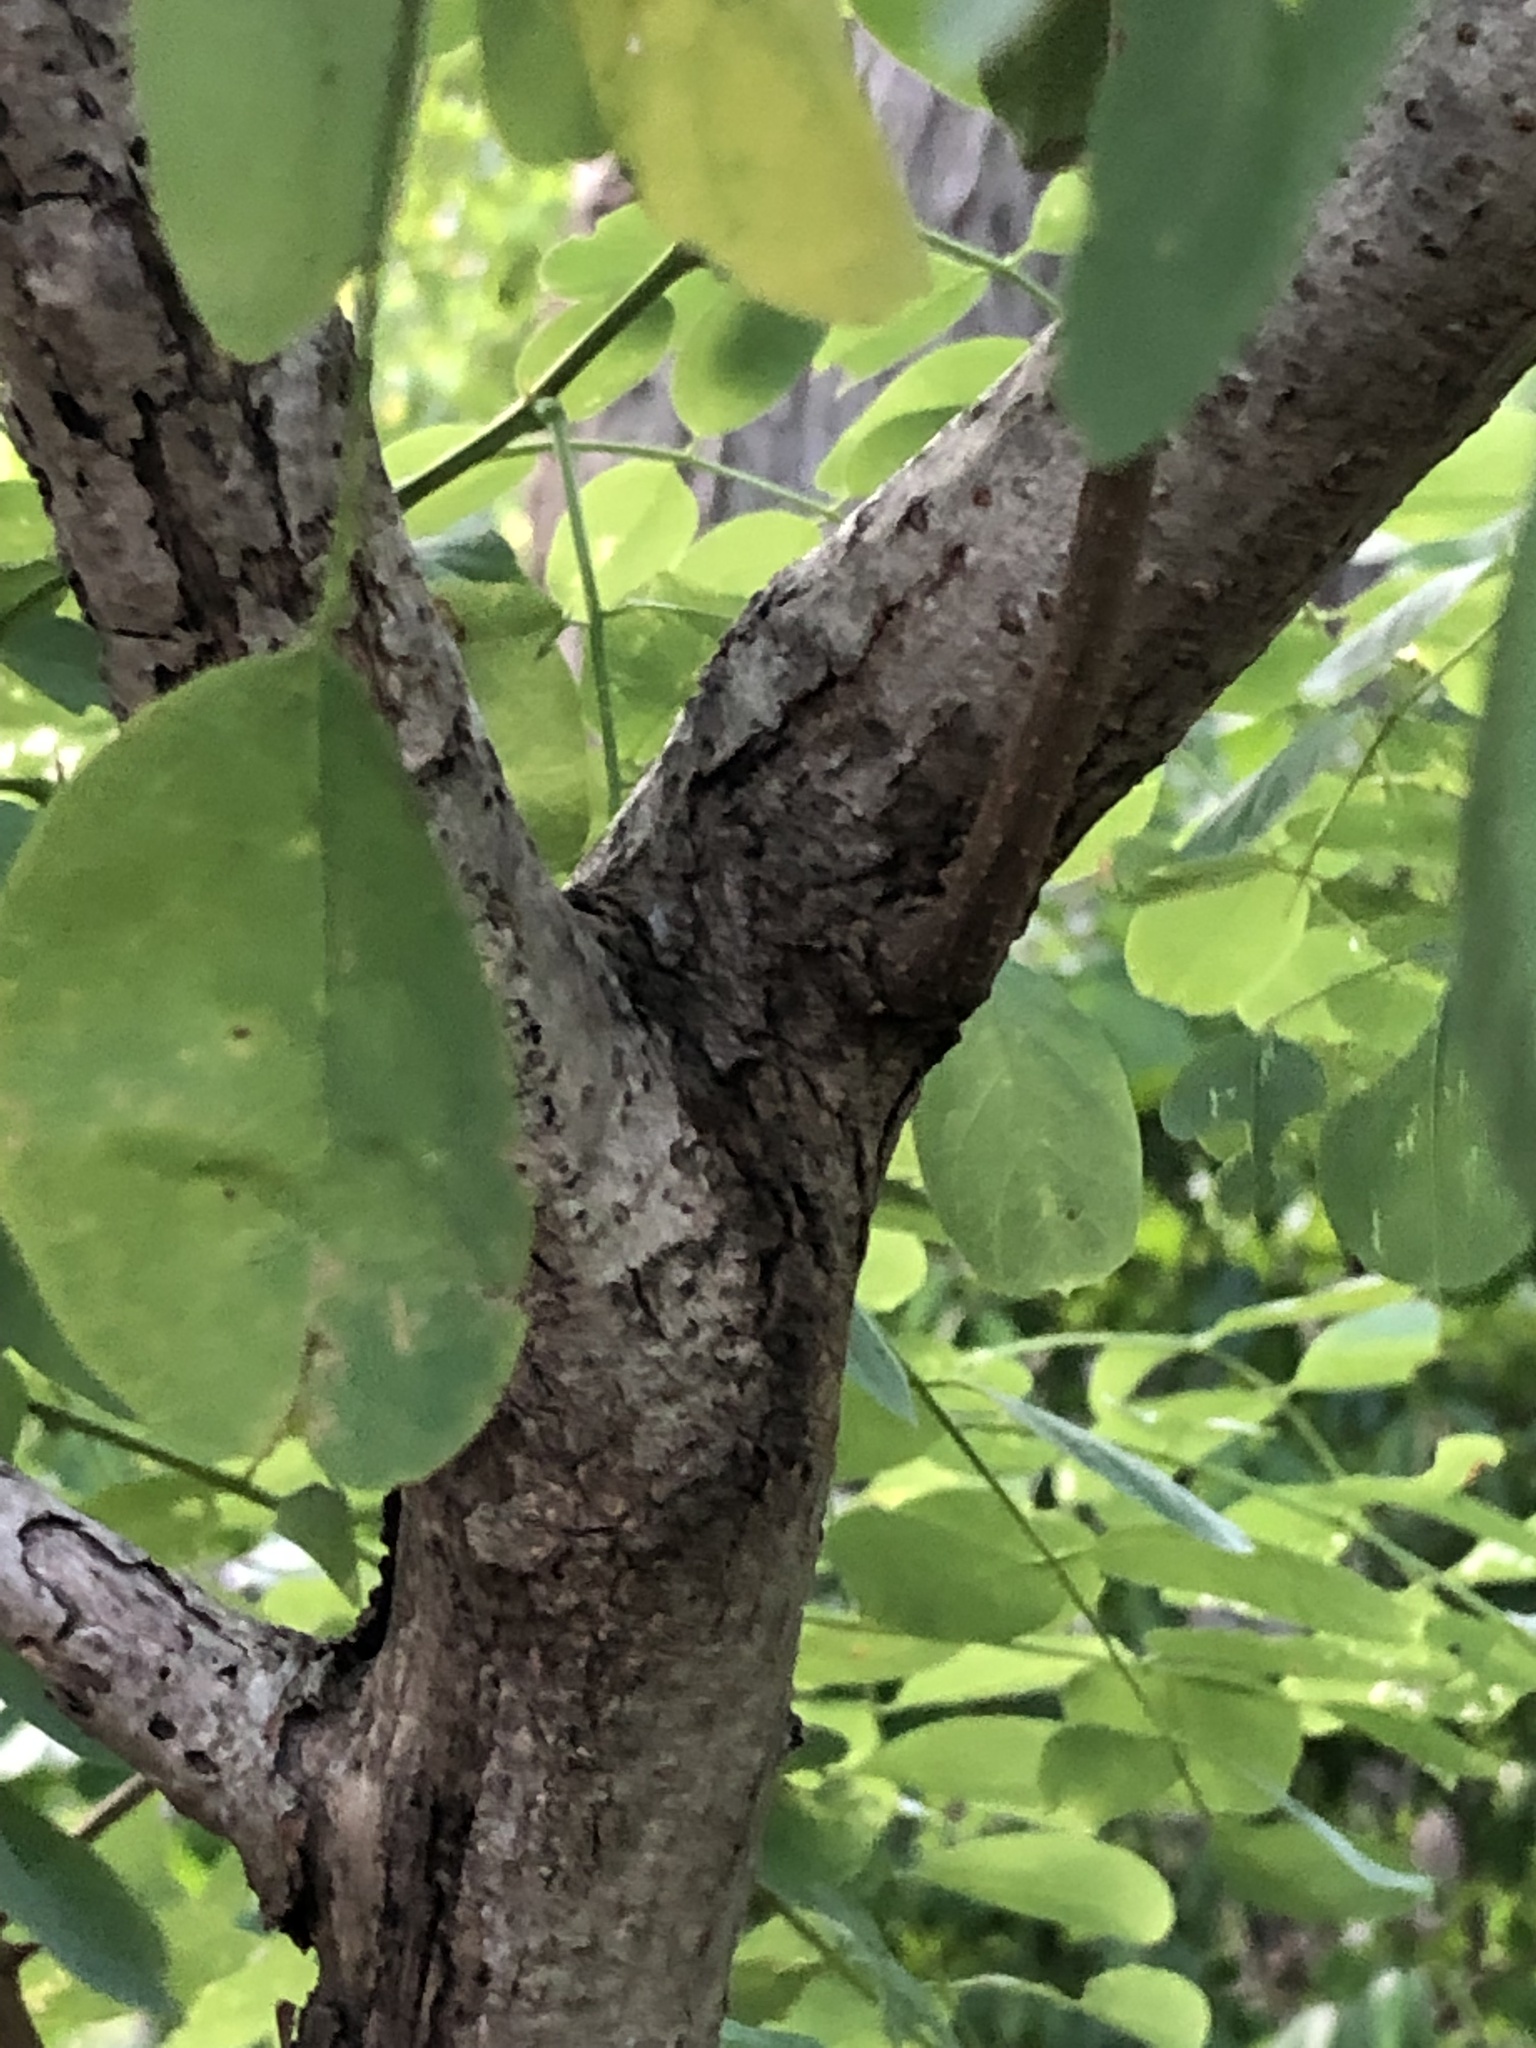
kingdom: Plantae
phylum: Tracheophyta
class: Magnoliopsida
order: Fabales
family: Fabaceae
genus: Robinia
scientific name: Robinia pseudoacacia
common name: Black locust
